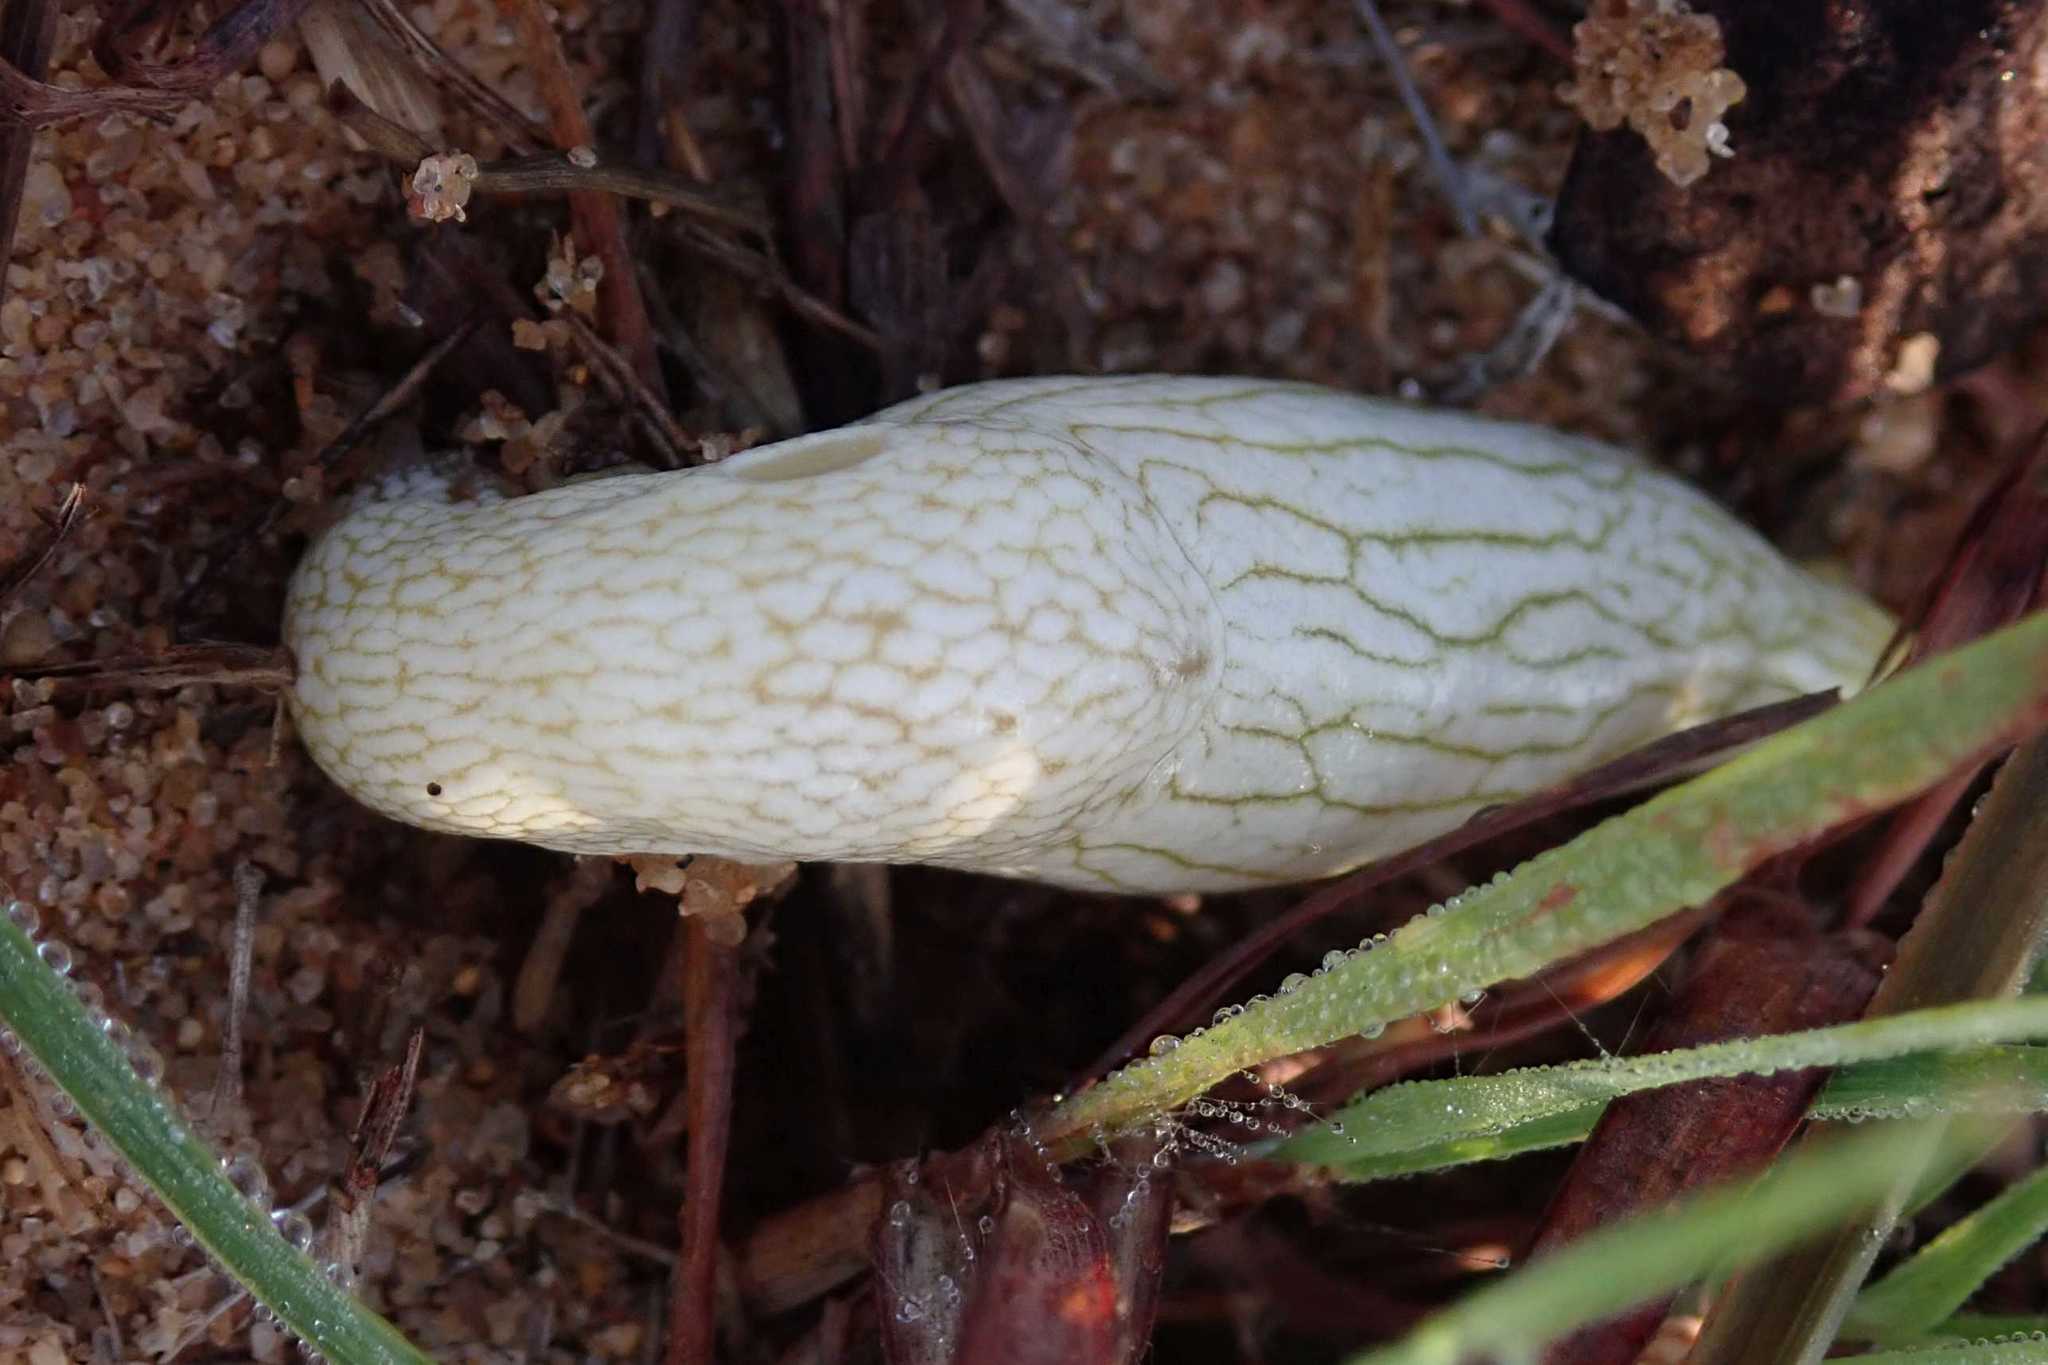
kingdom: Animalia
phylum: Mollusca
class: Gastropoda
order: Stylommatophora
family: Urocyclidae
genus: Elisolimax
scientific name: Elisolimax flavescens
